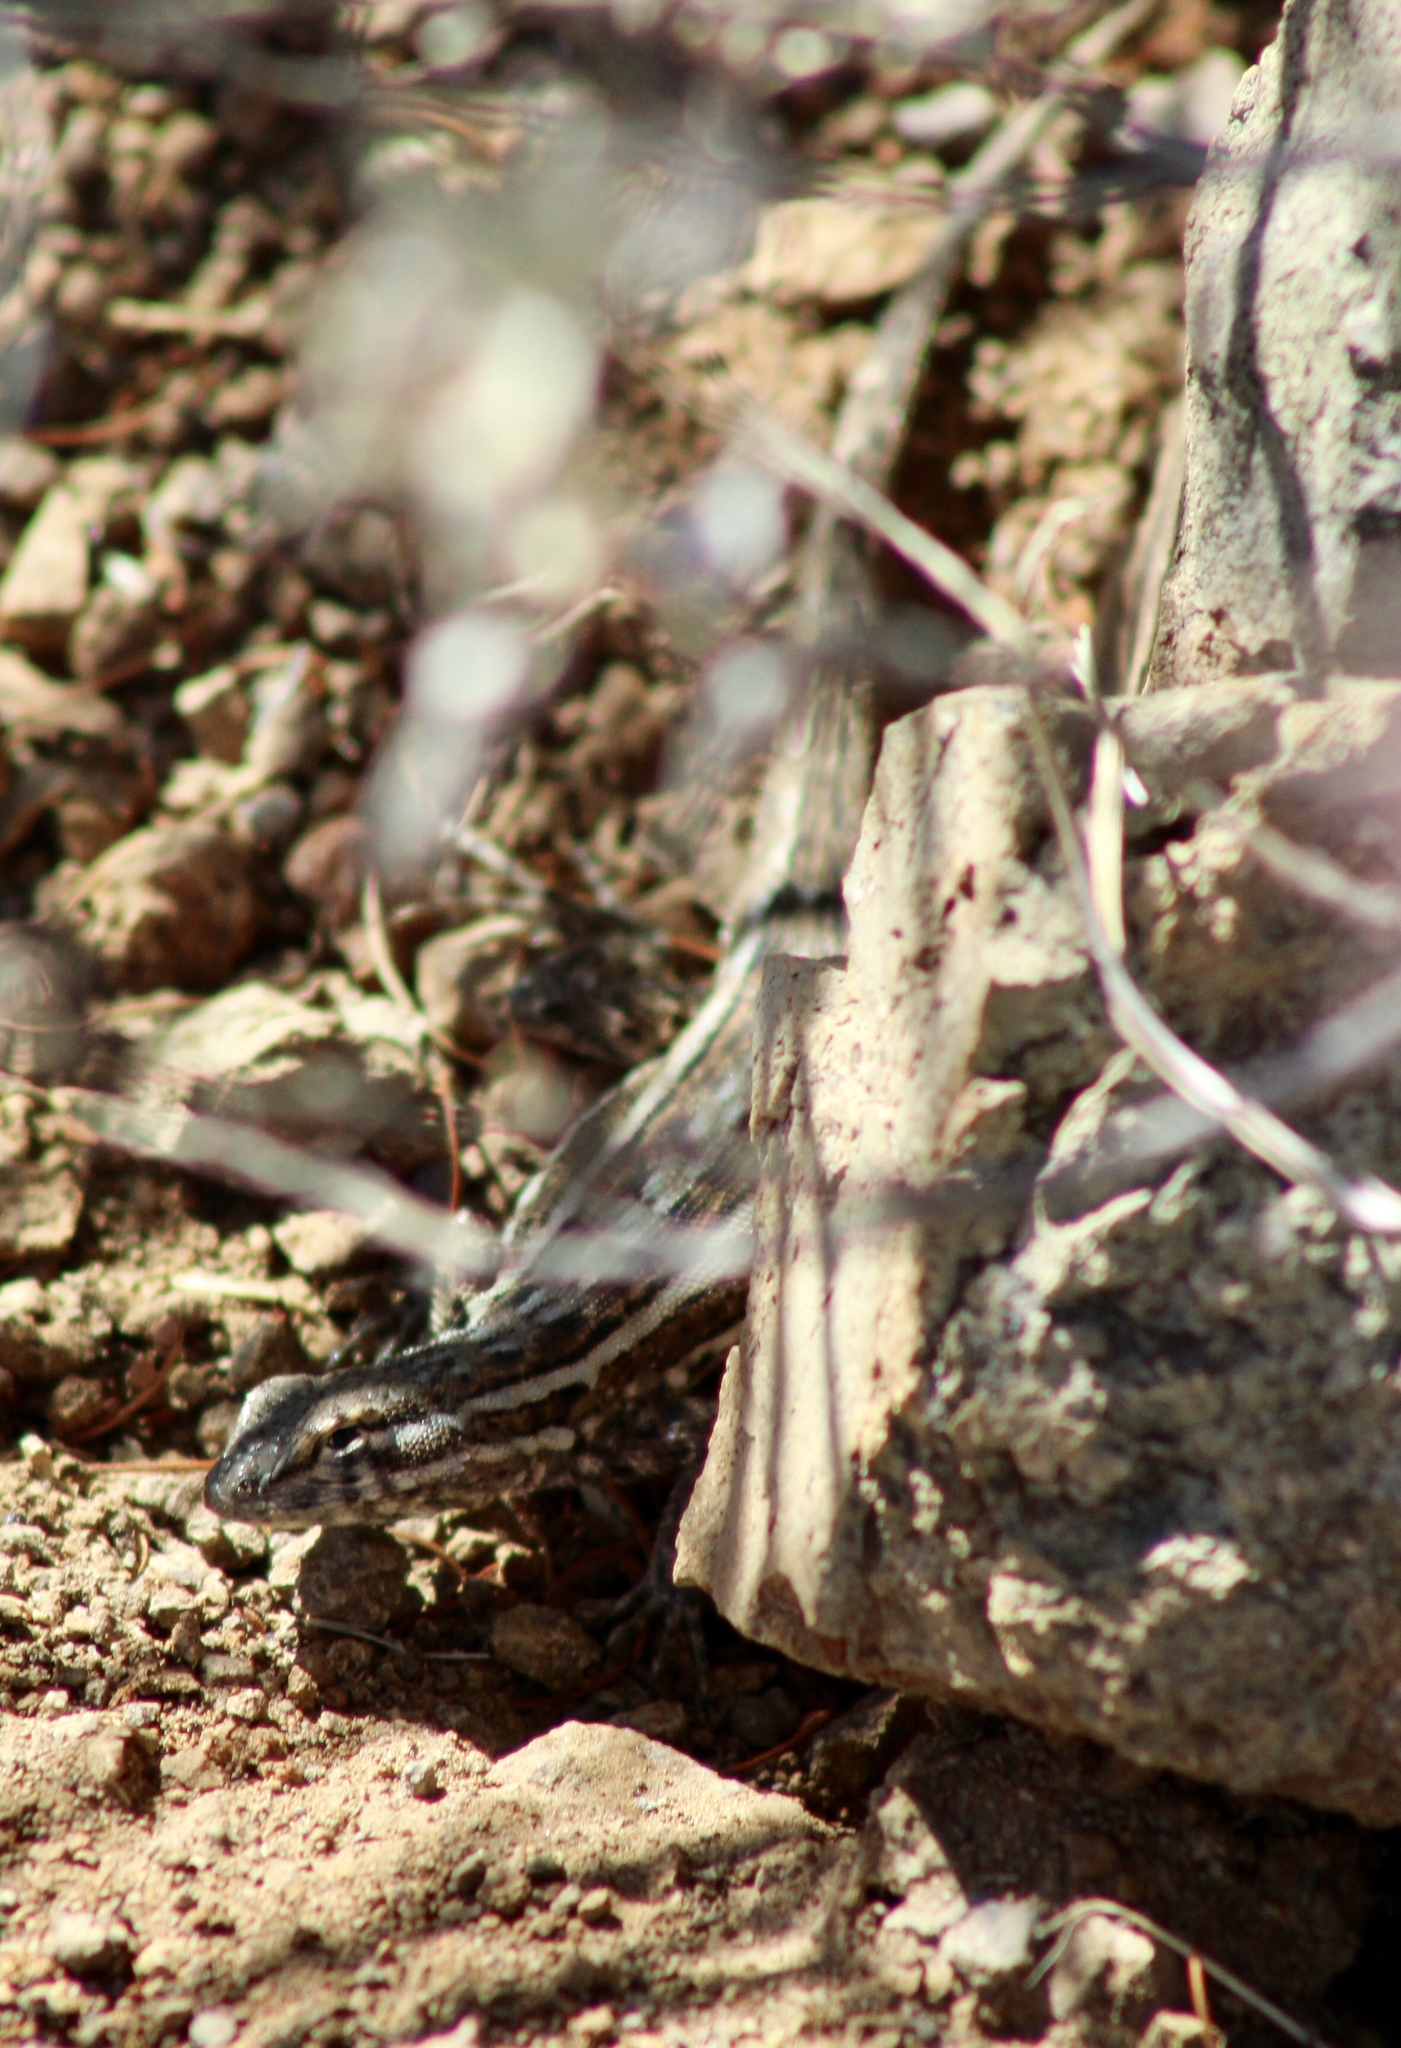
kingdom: Animalia
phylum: Chordata
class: Squamata
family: Phrynosomatidae
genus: Uta
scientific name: Uta stansburiana
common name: Side-blotched lizard
